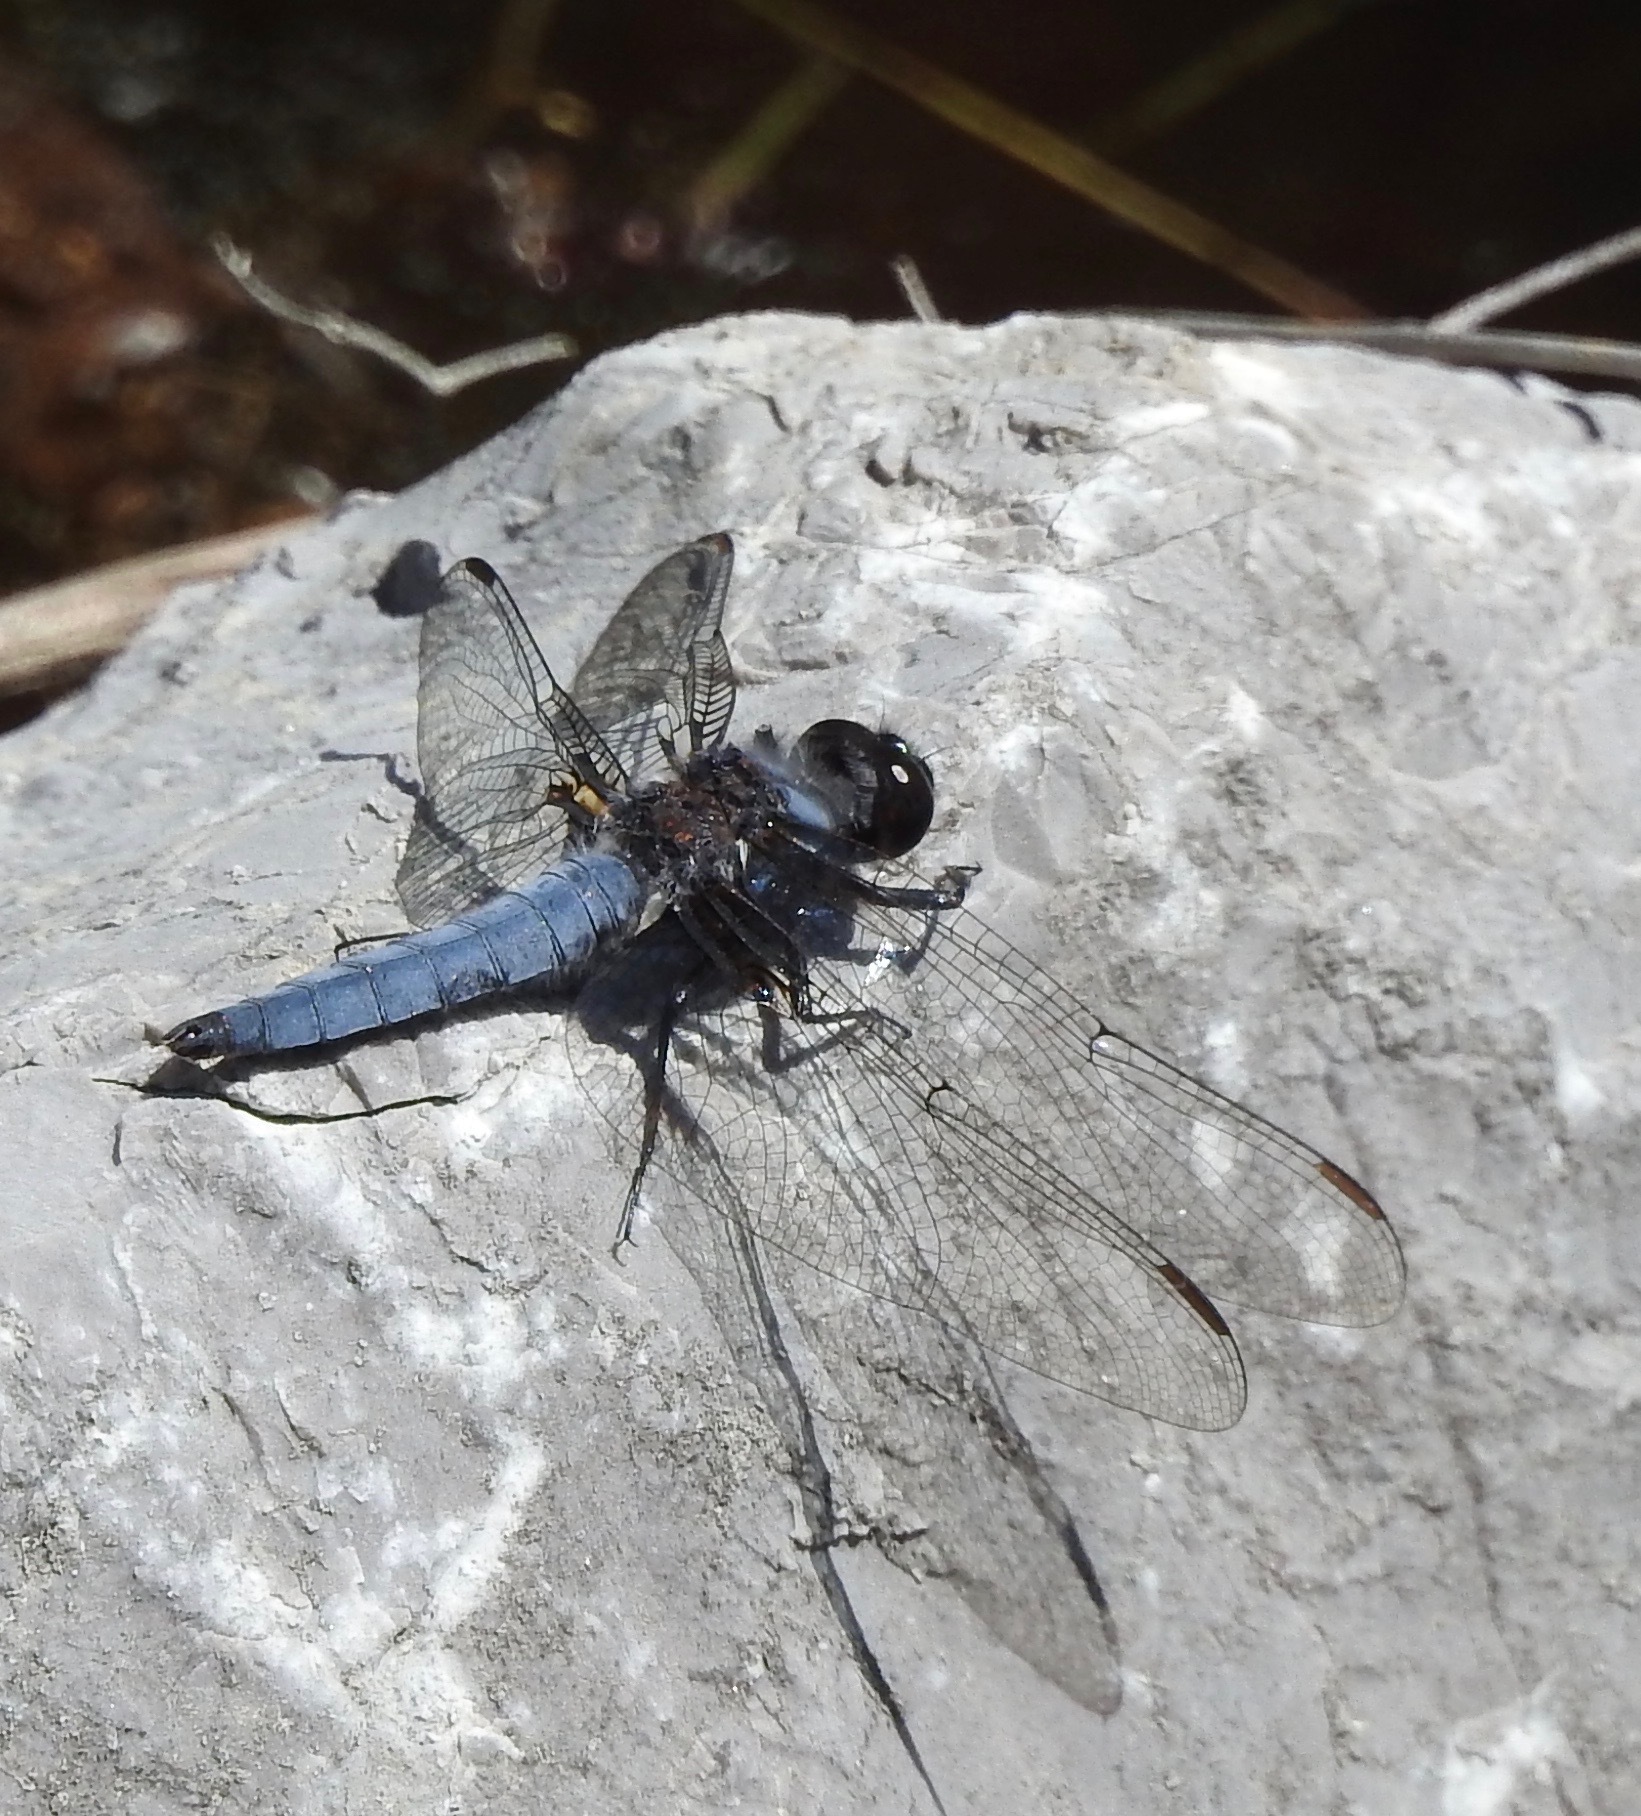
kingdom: Animalia
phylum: Arthropoda
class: Insecta
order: Odonata
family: Libellulidae
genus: Ladona
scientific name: Ladona deplanata
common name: Blue corporal
